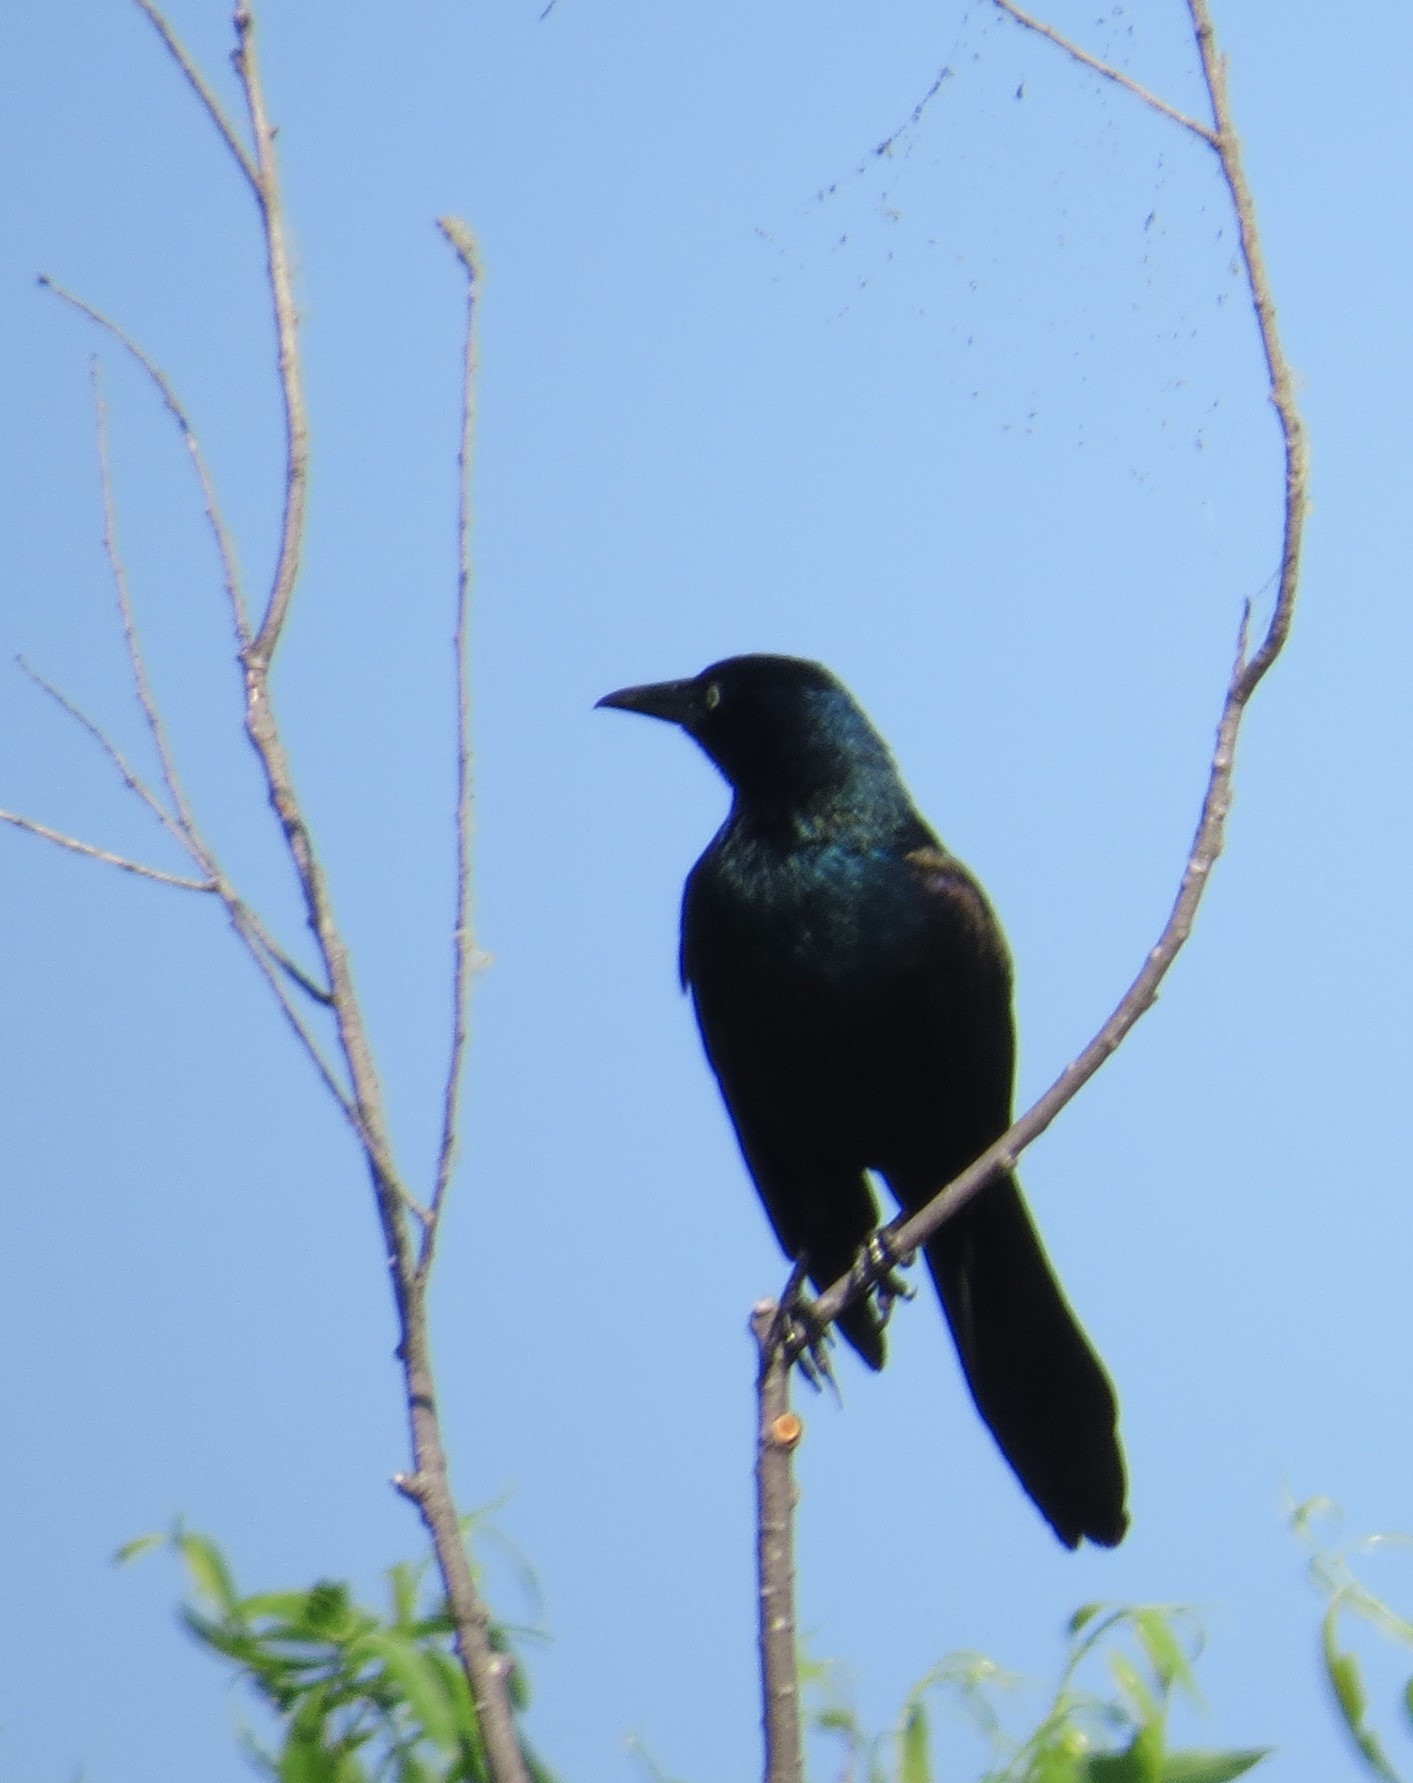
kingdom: Animalia
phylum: Chordata
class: Aves
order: Passeriformes
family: Icteridae
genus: Quiscalus
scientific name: Quiscalus quiscula
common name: Common grackle
